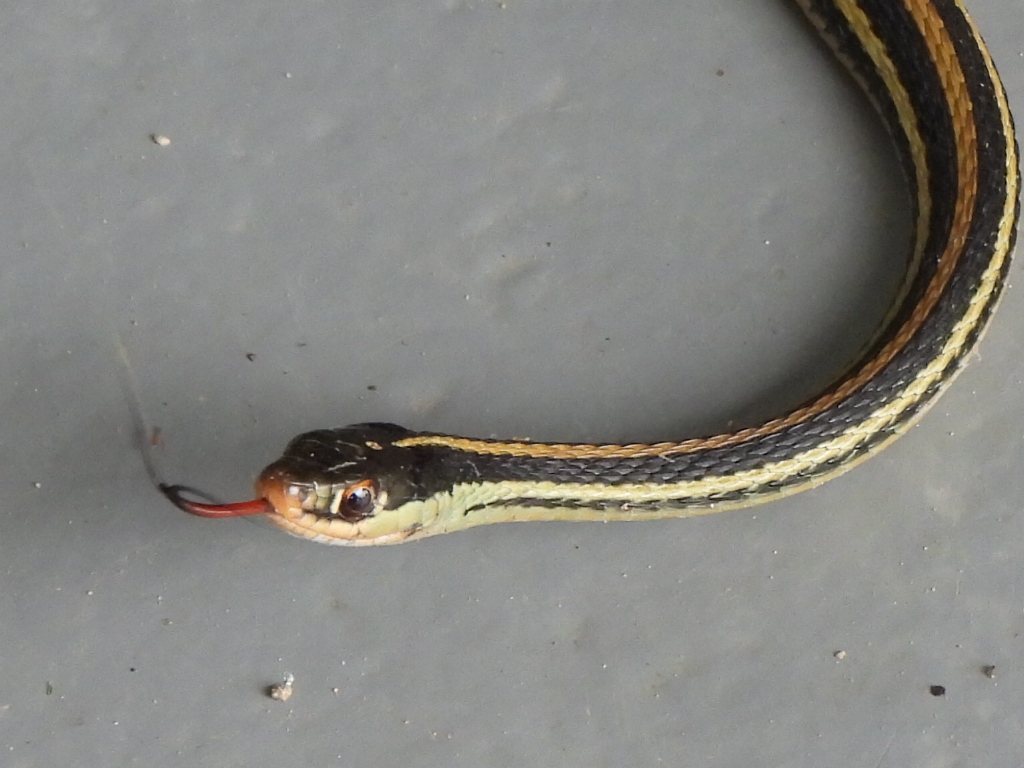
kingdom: Animalia
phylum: Chordata
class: Squamata
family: Colubridae
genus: Thamnophis
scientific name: Thamnophis proximus
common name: Western ribbon snake
